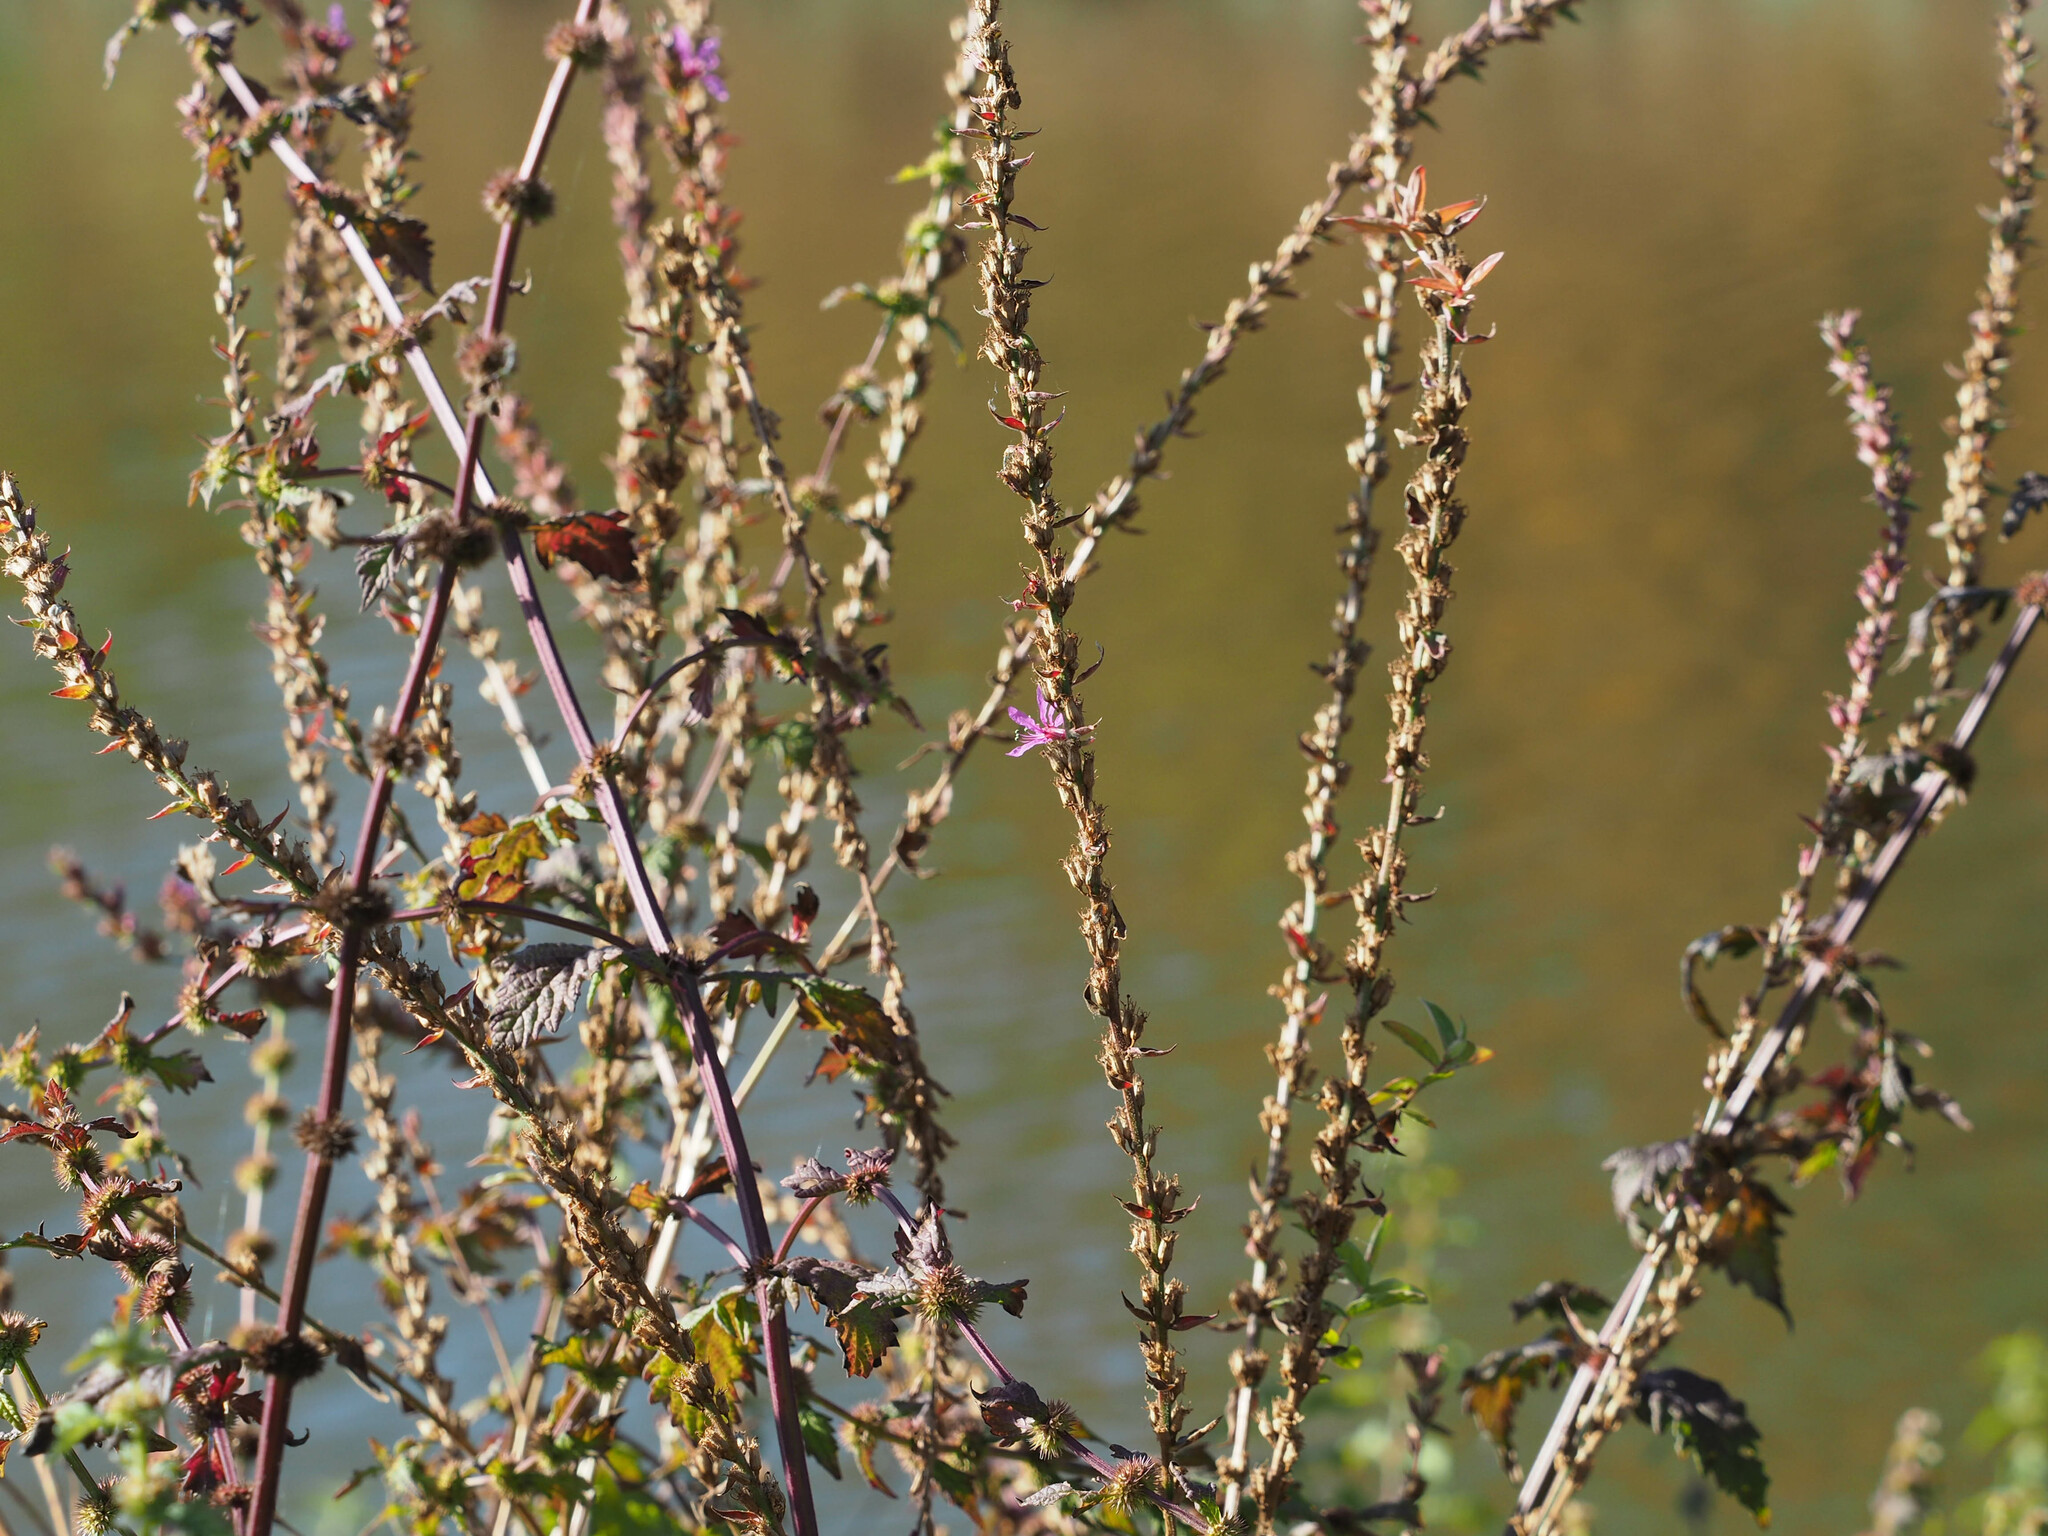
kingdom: Plantae
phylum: Tracheophyta
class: Magnoliopsida
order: Myrtales
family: Lythraceae
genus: Lythrum
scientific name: Lythrum salicaria
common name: Purple loosestrife
